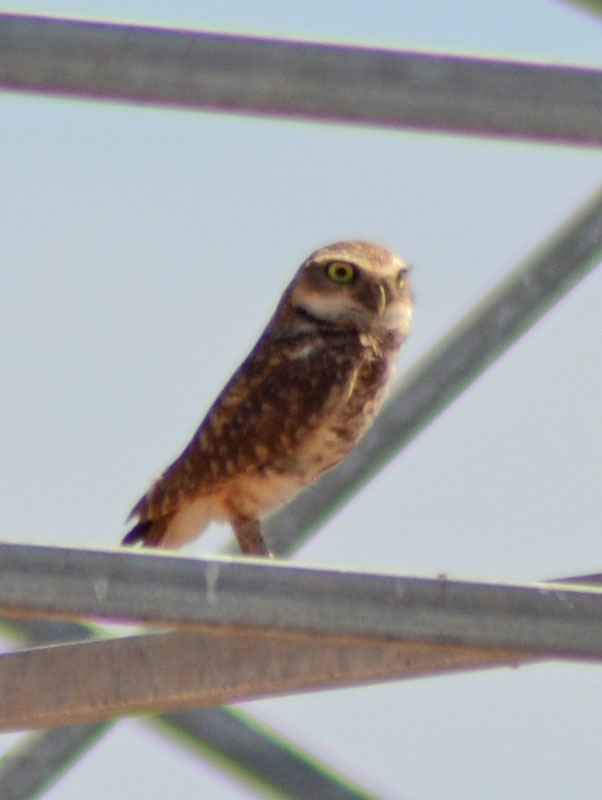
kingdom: Animalia
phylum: Chordata
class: Aves
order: Strigiformes
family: Strigidae
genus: Athene
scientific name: Athene cunicularia
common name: Burrowing owl
